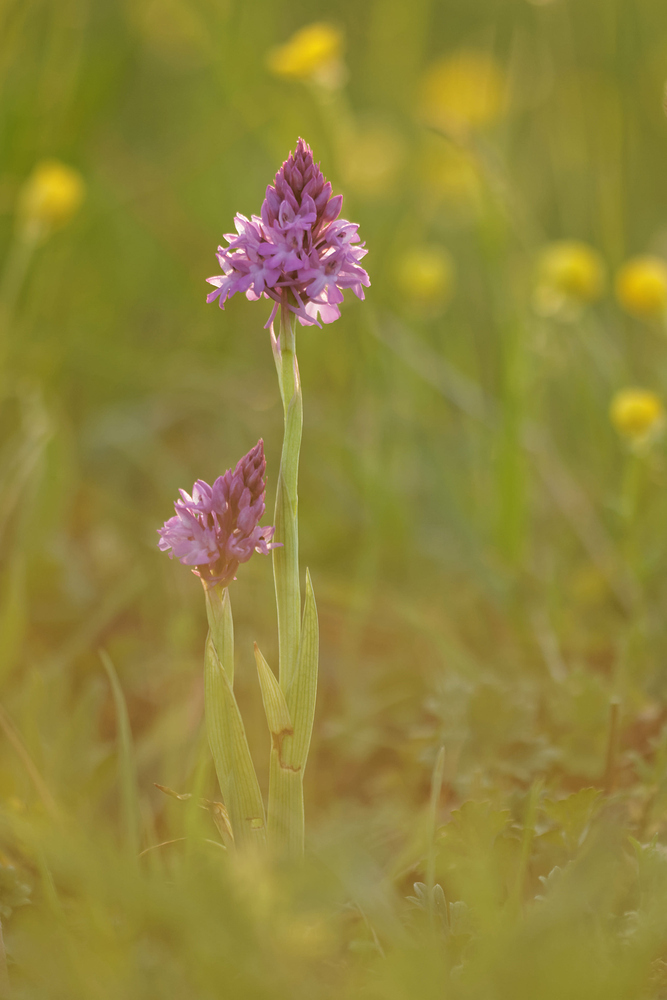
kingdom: Plantae
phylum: Tracheophyta
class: Liliopsida
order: Asparagales
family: Orchidaceae
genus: Anacamptis
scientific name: Anacamptis pyramidalis
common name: Pyramidal orchid
